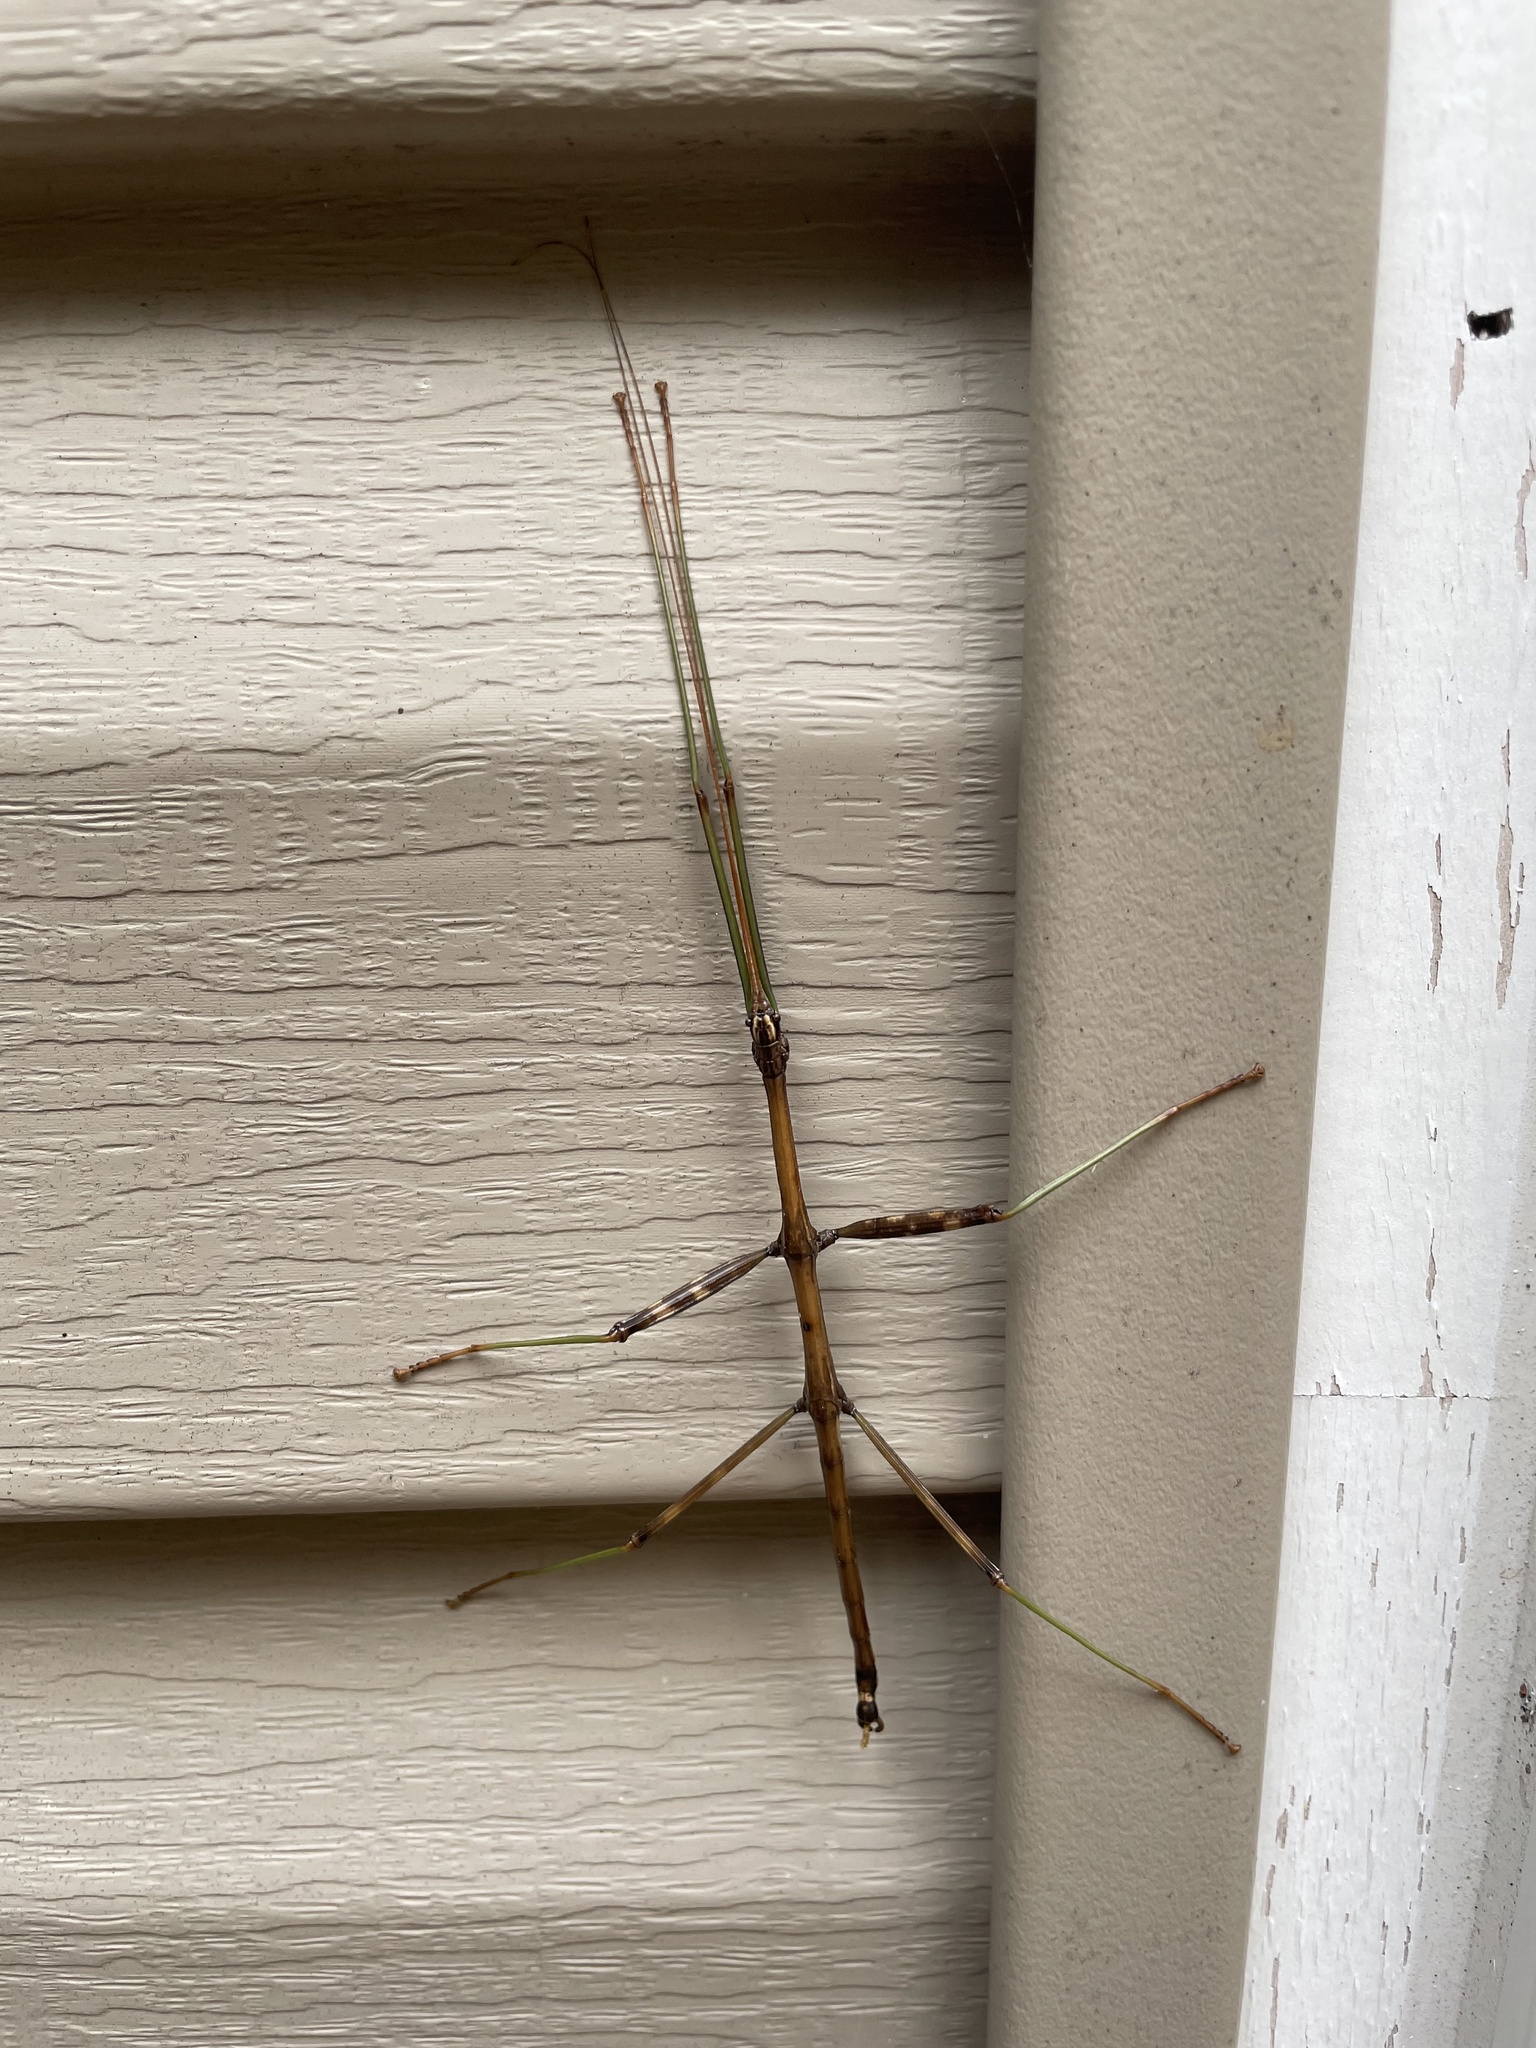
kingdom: Animalia
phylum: Arthropoda
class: Insecta
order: Phasmida
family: Diapheromeridae
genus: Diapheromera
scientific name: Diapheromera femorata
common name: Common american walkingstick
